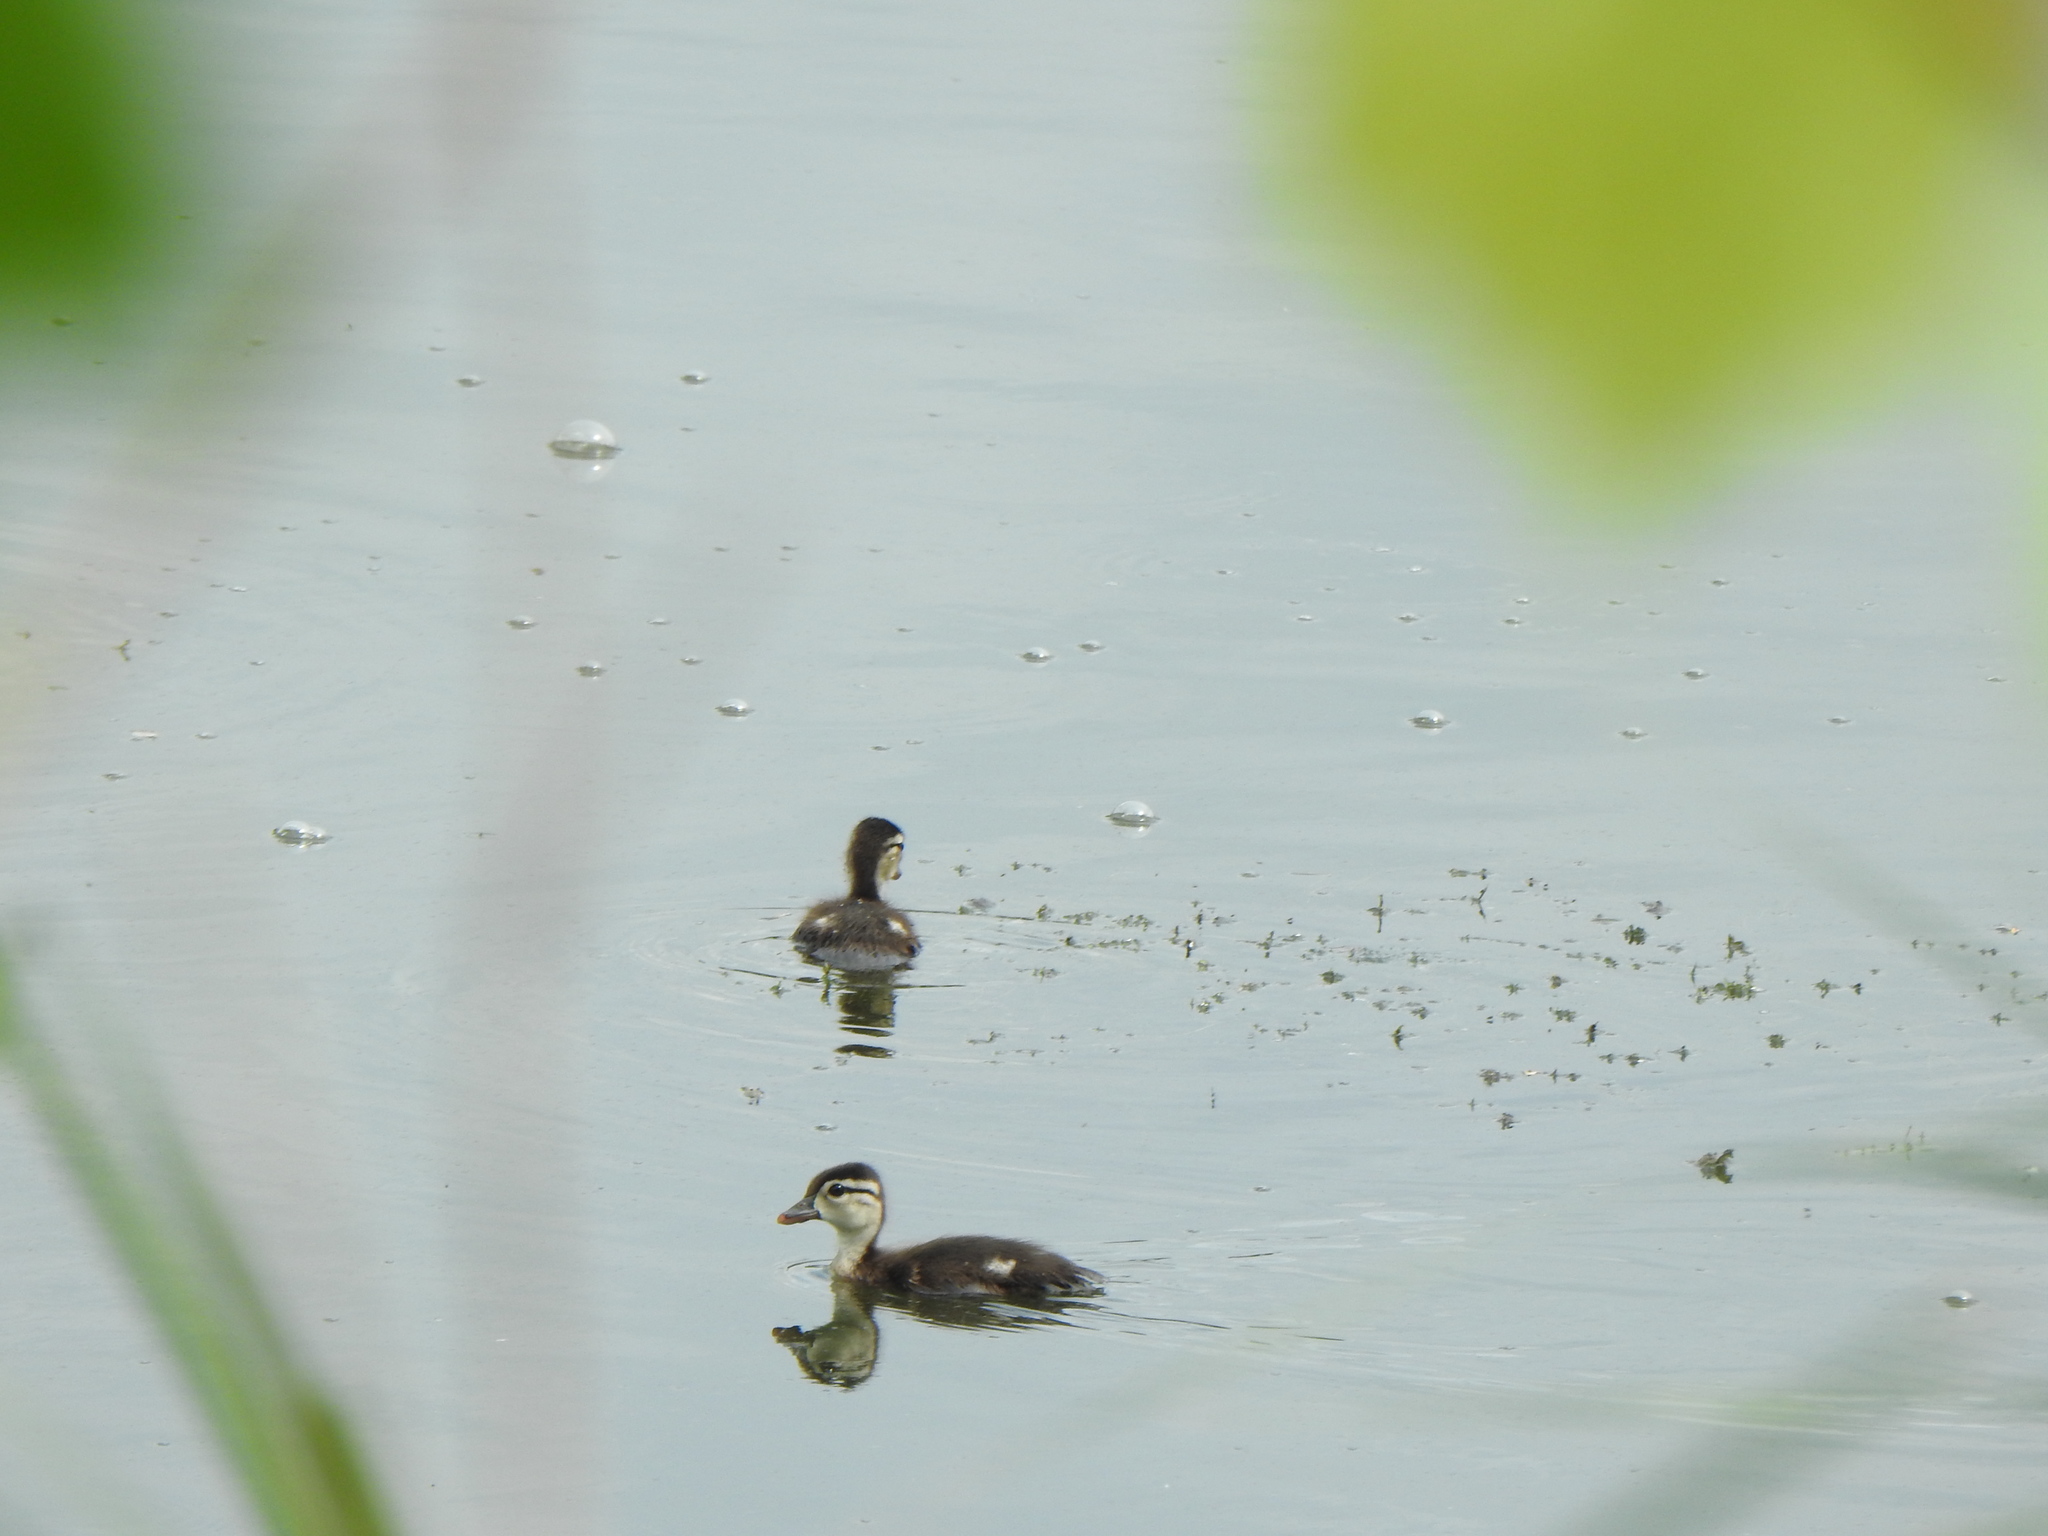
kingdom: Animalia
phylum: Chordata
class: Aves
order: Anseriformes
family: Anatidae
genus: Aix
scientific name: Aix sponsa
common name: Wood duck
